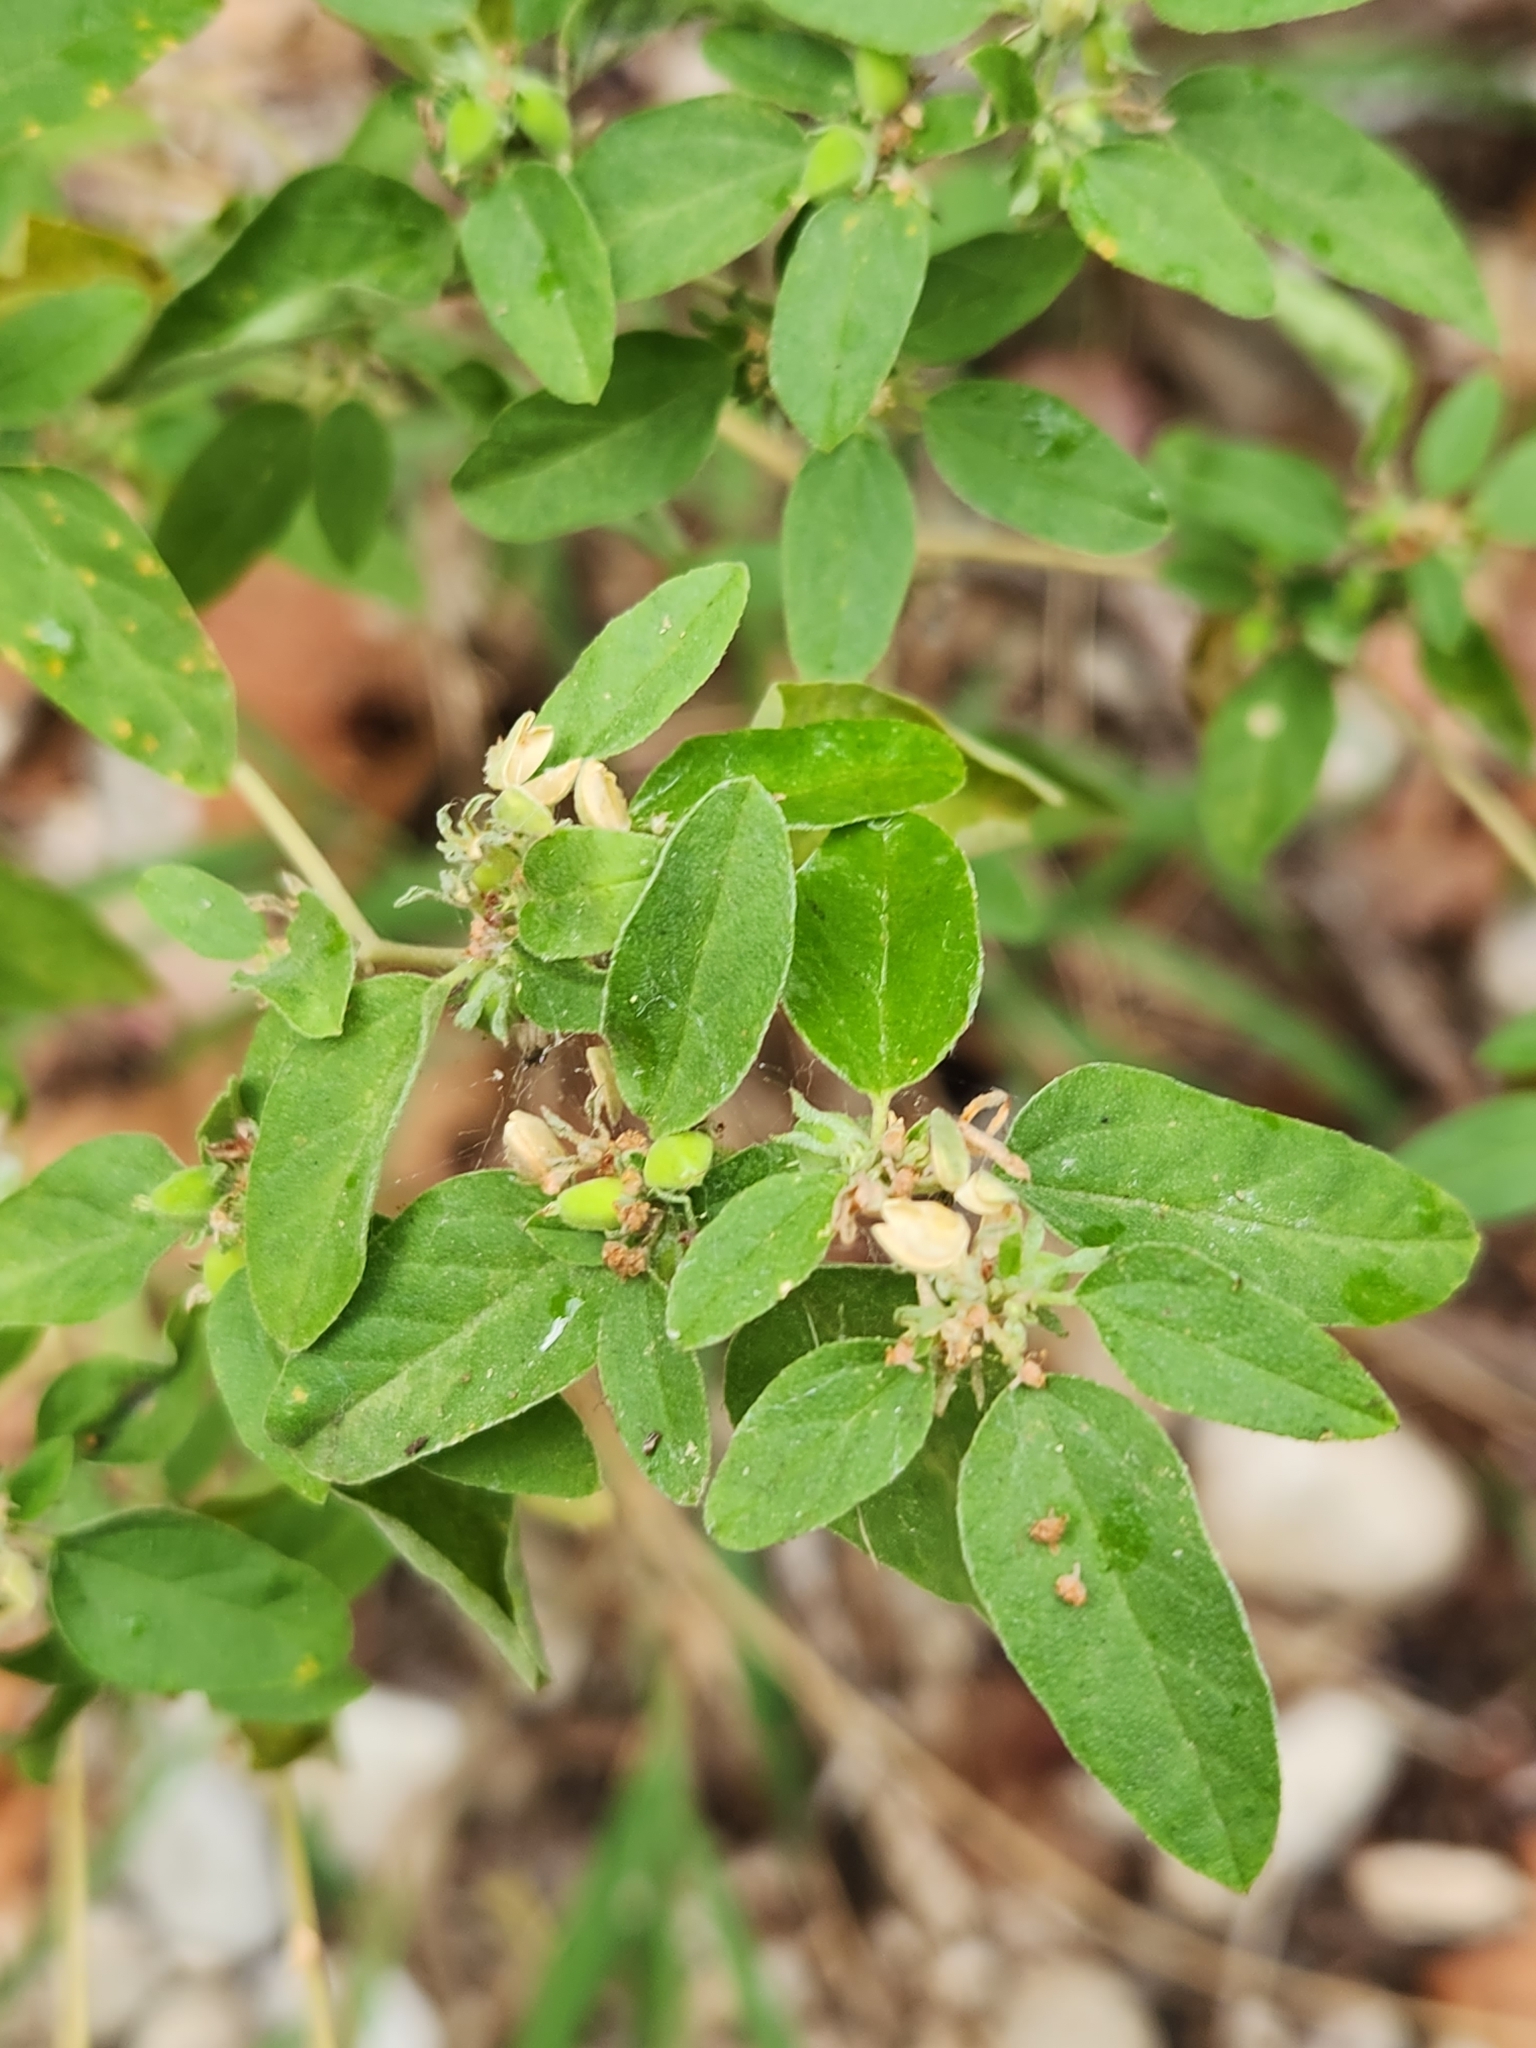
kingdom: Plantae
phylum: Tracheophyta
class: Magnoliopsida
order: Malpighiales
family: Euphorbiaceae
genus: Croton
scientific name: Croton monanthogynus
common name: One-seed croton
